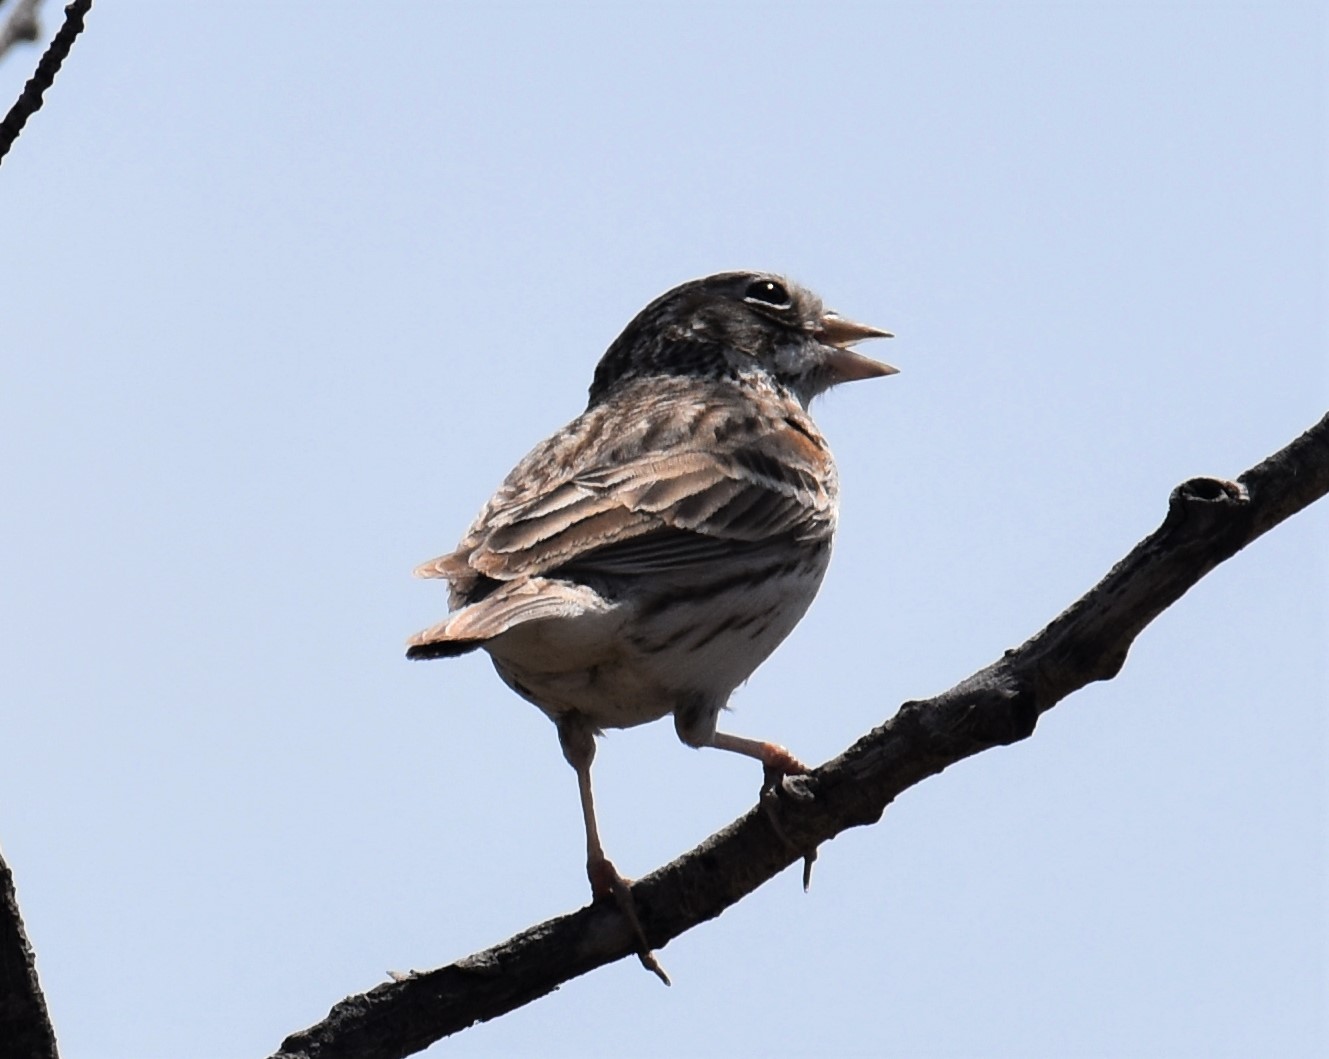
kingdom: Animalia
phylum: Chordata
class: Aves
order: Passeriformes
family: Passerellidae
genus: Pooecetes
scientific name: Pooecetes gramineus
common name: Vesper sparrow
